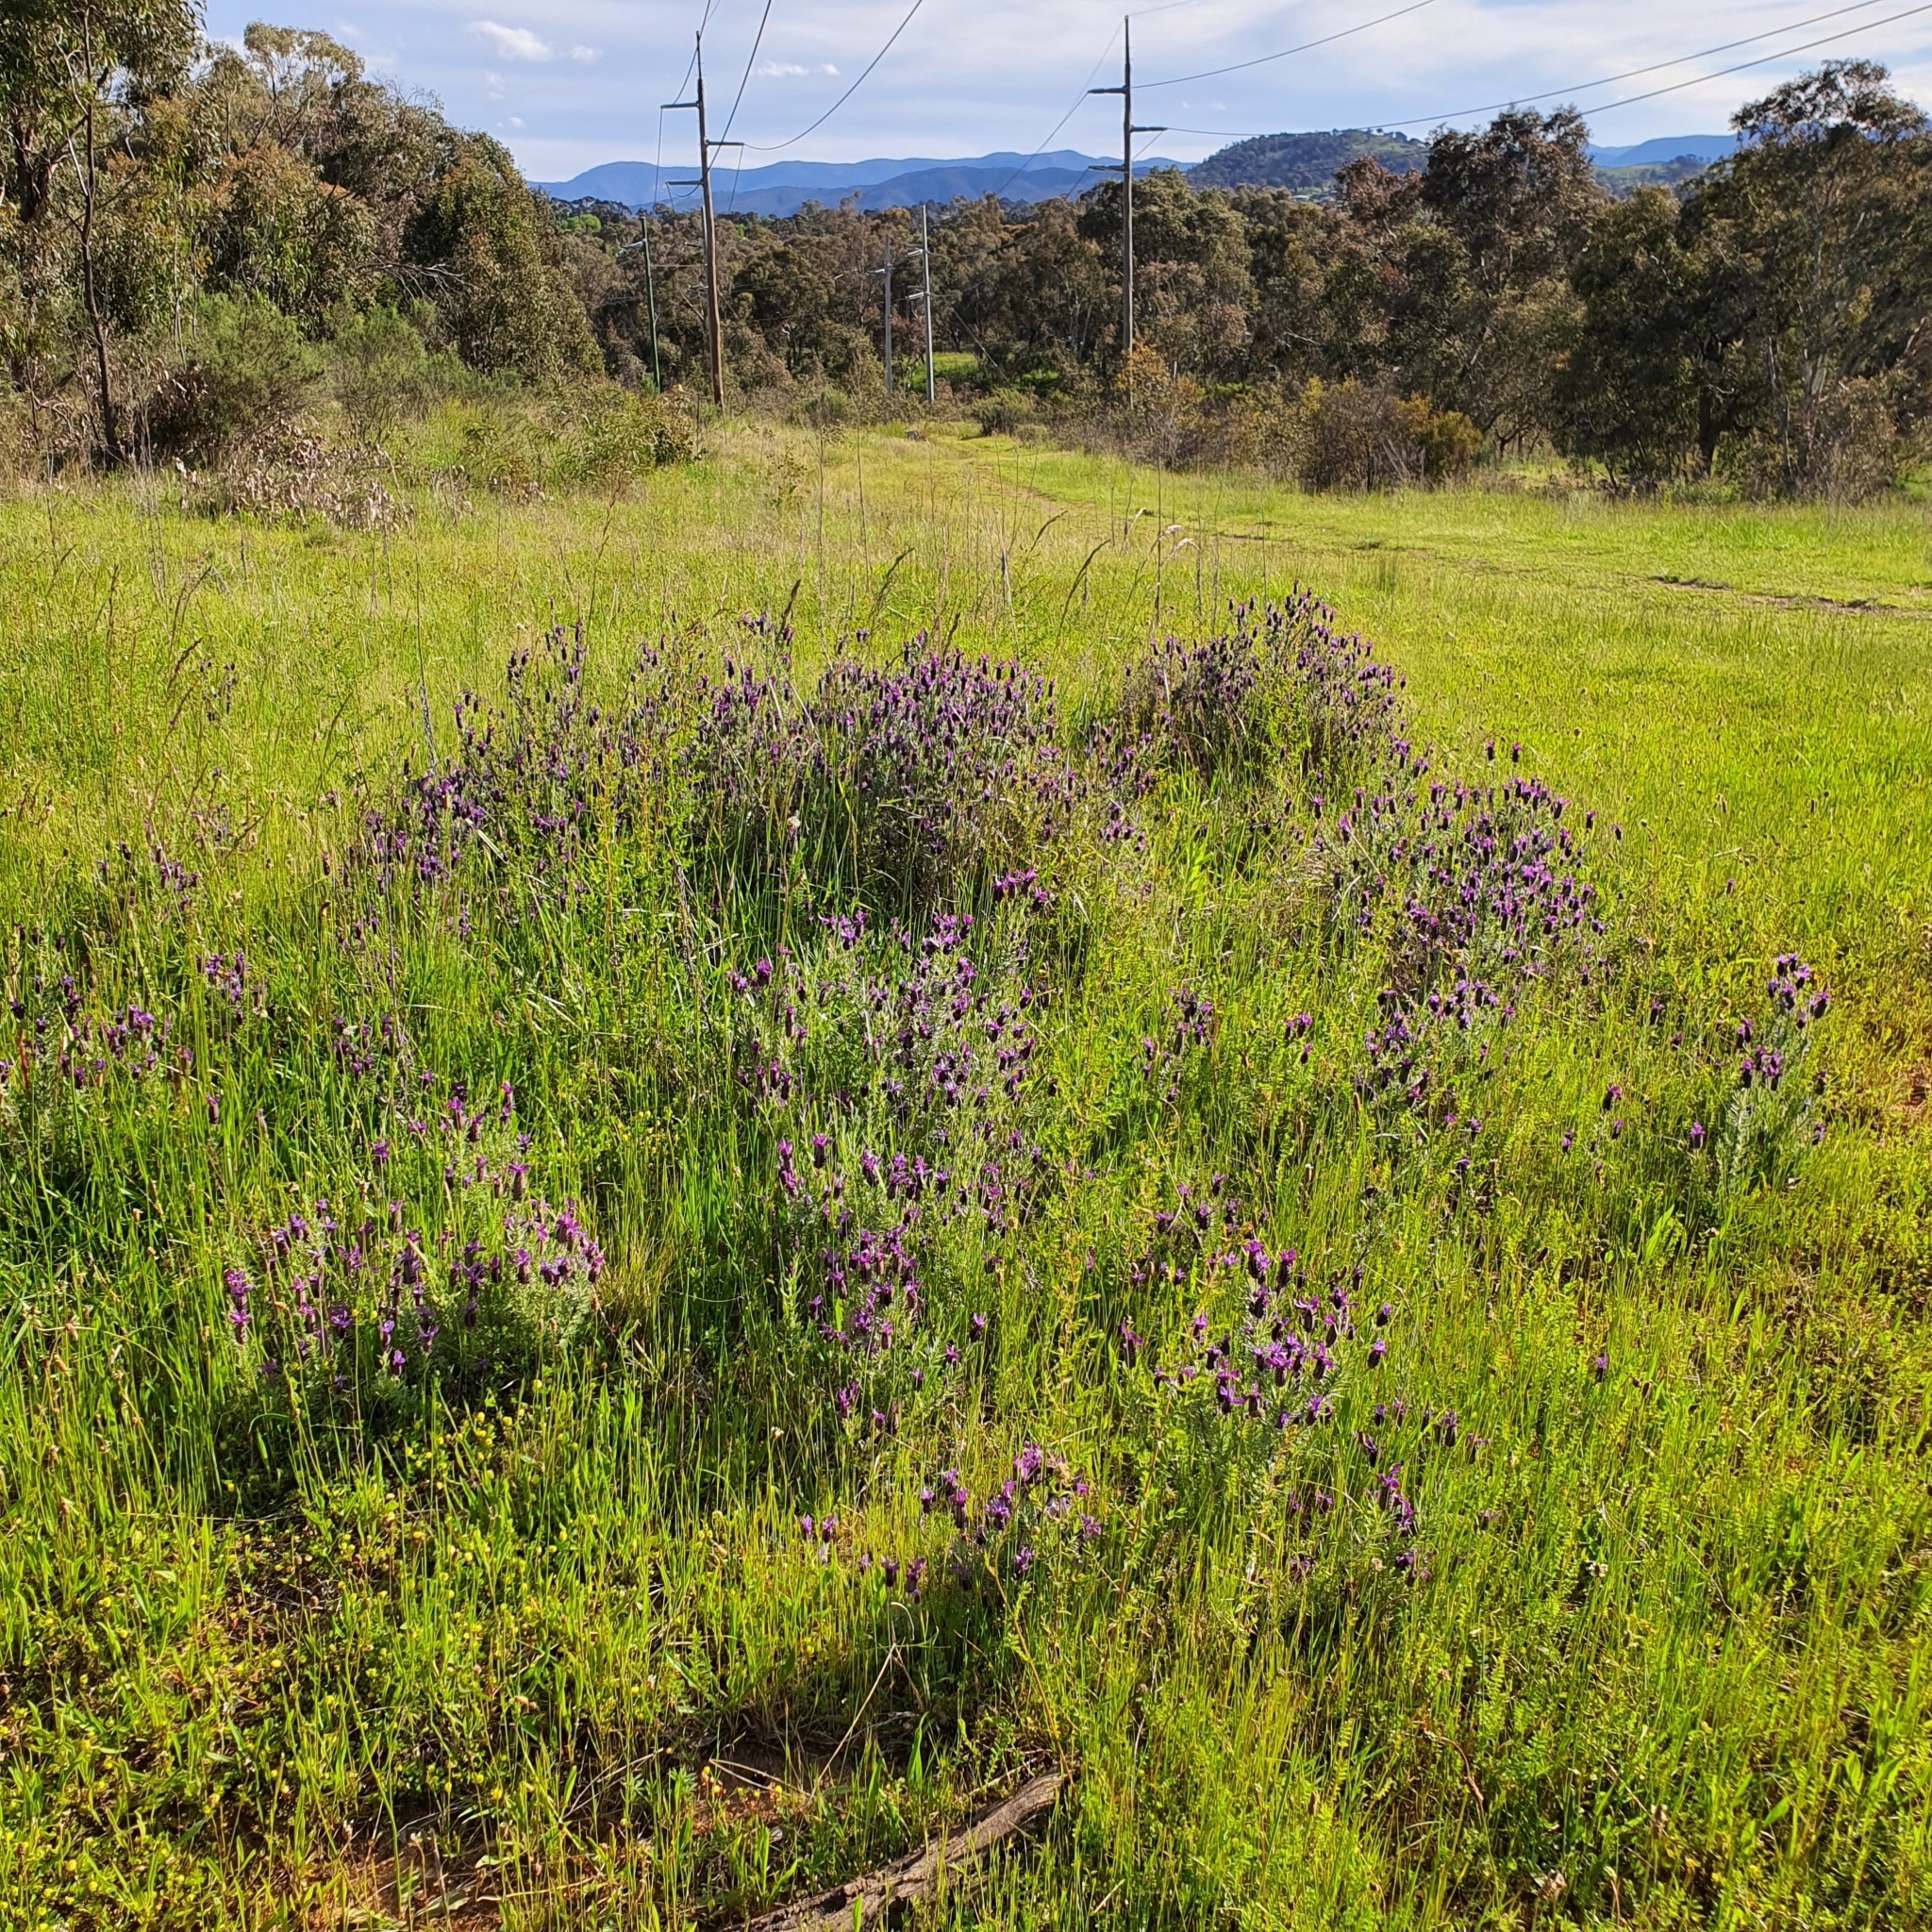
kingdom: Plantae
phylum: Tracheophyta
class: Magnoliopsida
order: Lamiales
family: Lamiaceae
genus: Lavandula
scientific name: Lavandula stoechas
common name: French lavender
